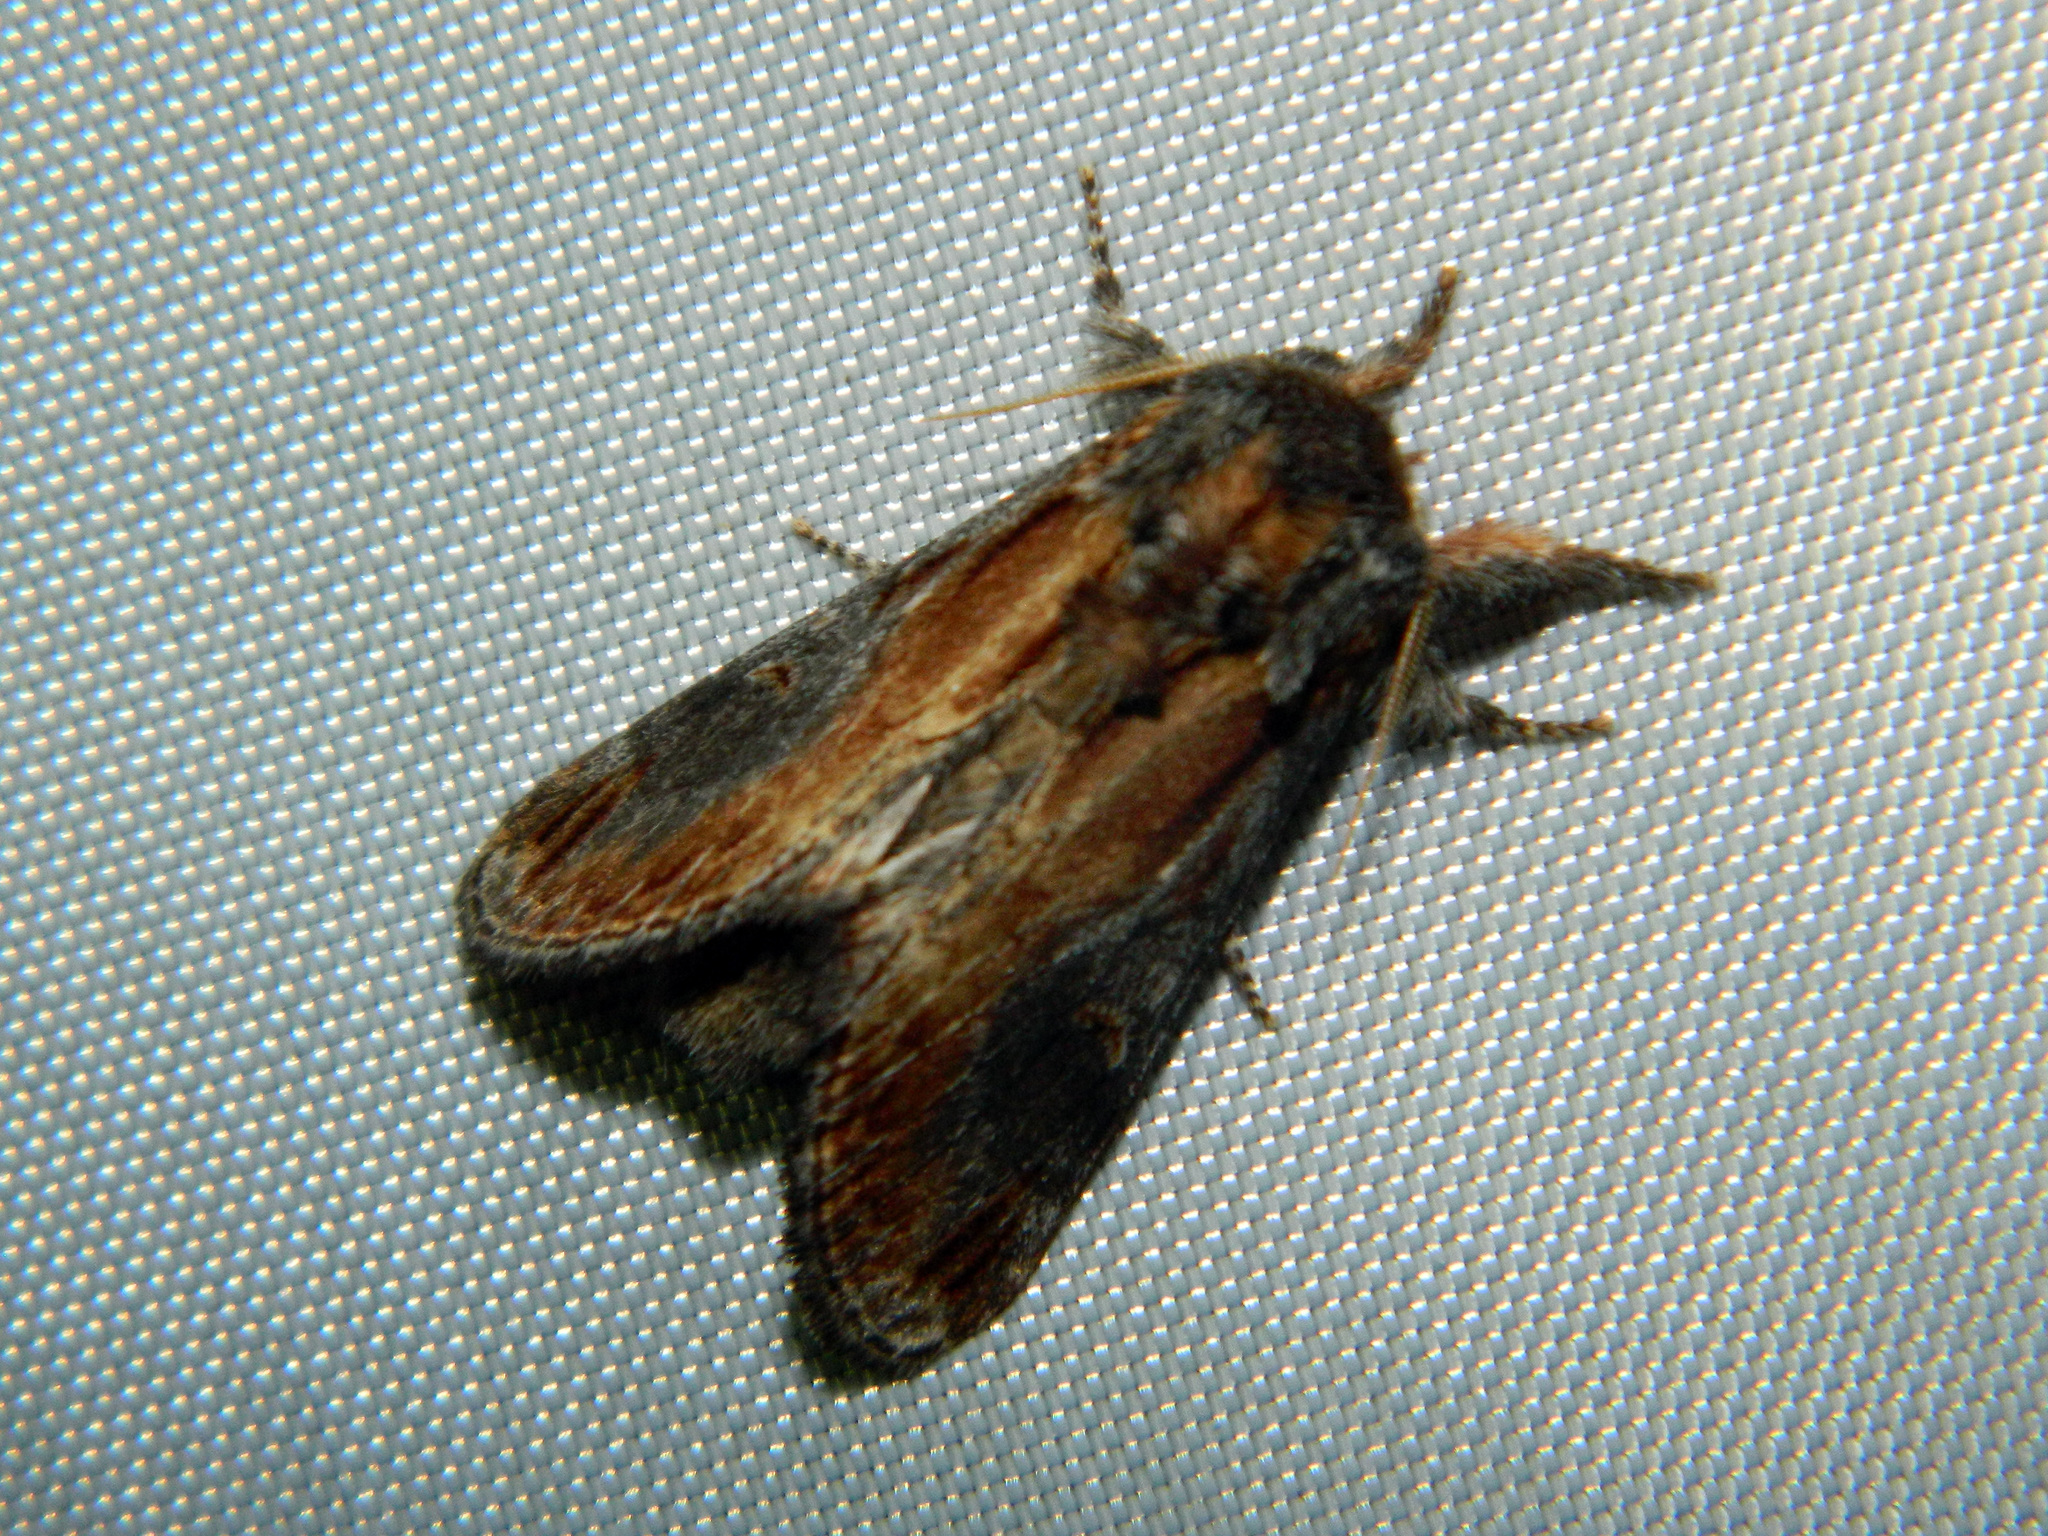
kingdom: Animalia
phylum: Arthropoda
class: Insecta
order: Lepidoptera
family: Notodontidae
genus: Notodonta
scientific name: Notodonta scitipennis
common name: Finned-willow prominent moth
